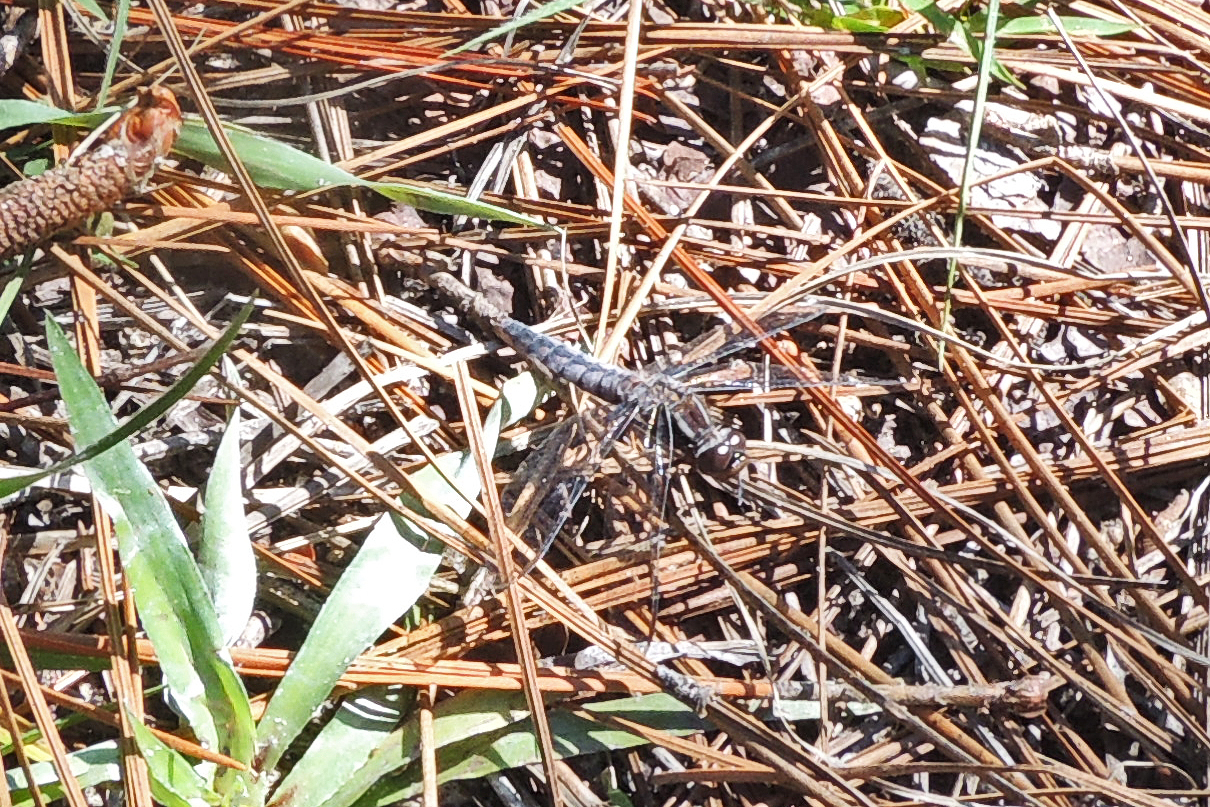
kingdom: Animalia
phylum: Arthropoda
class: Insecta
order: Odonata
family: Libellulidae
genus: Ladona
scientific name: Ladona deplanata
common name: Blue corporal
